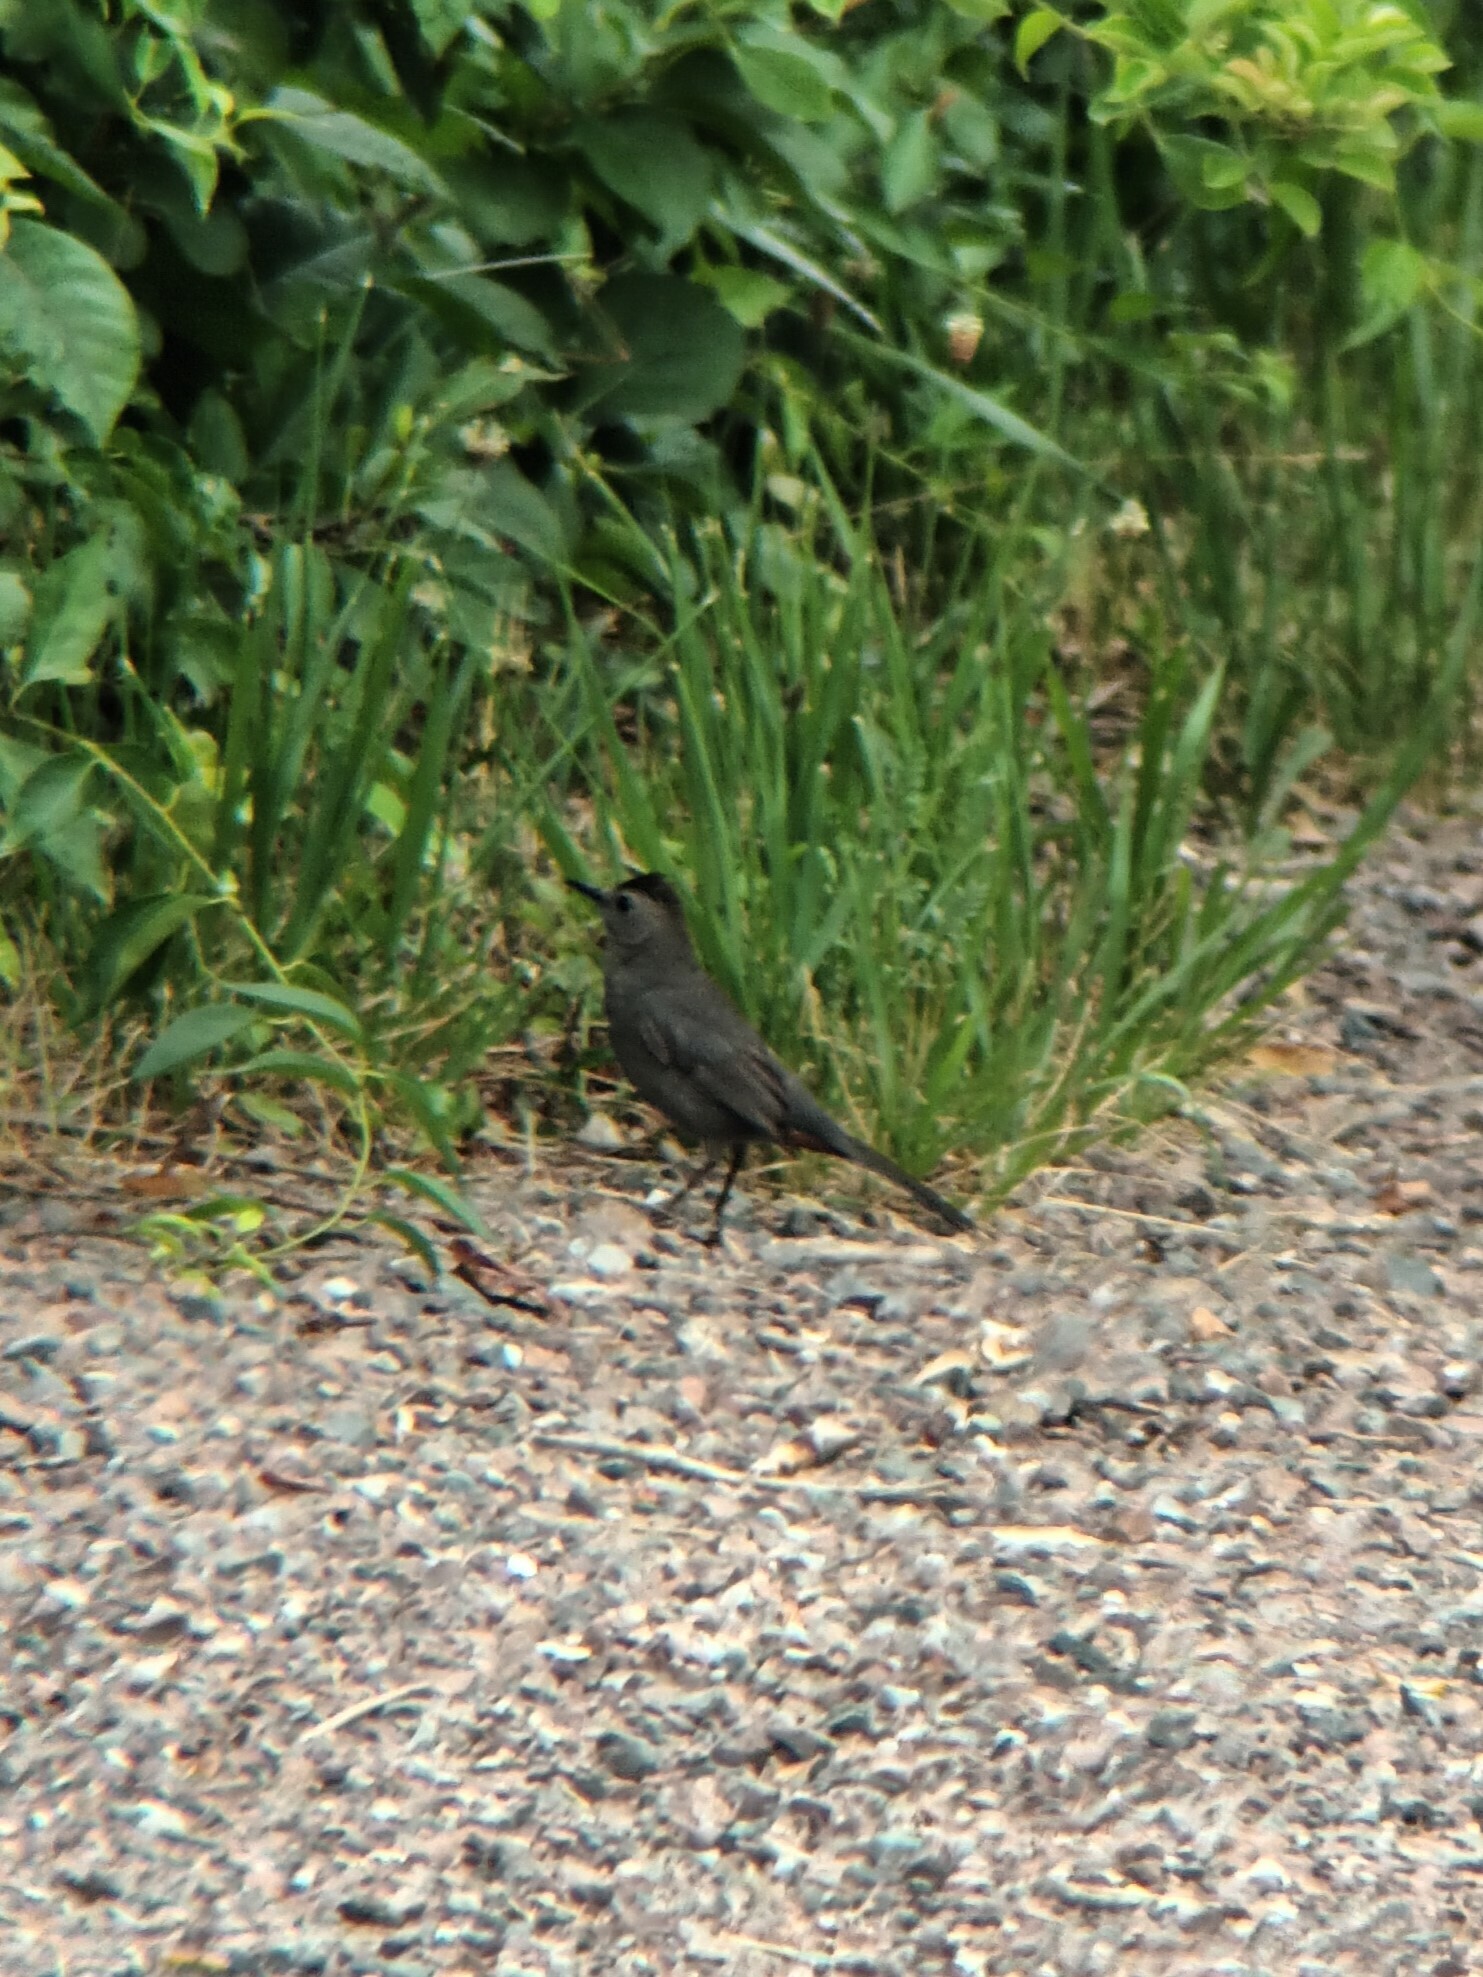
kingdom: Animalia
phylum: Chordata
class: Aves
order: Passeriformes
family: Mimidae
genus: Dumetella
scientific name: Dumetella carolinensis
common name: Gray catbird
